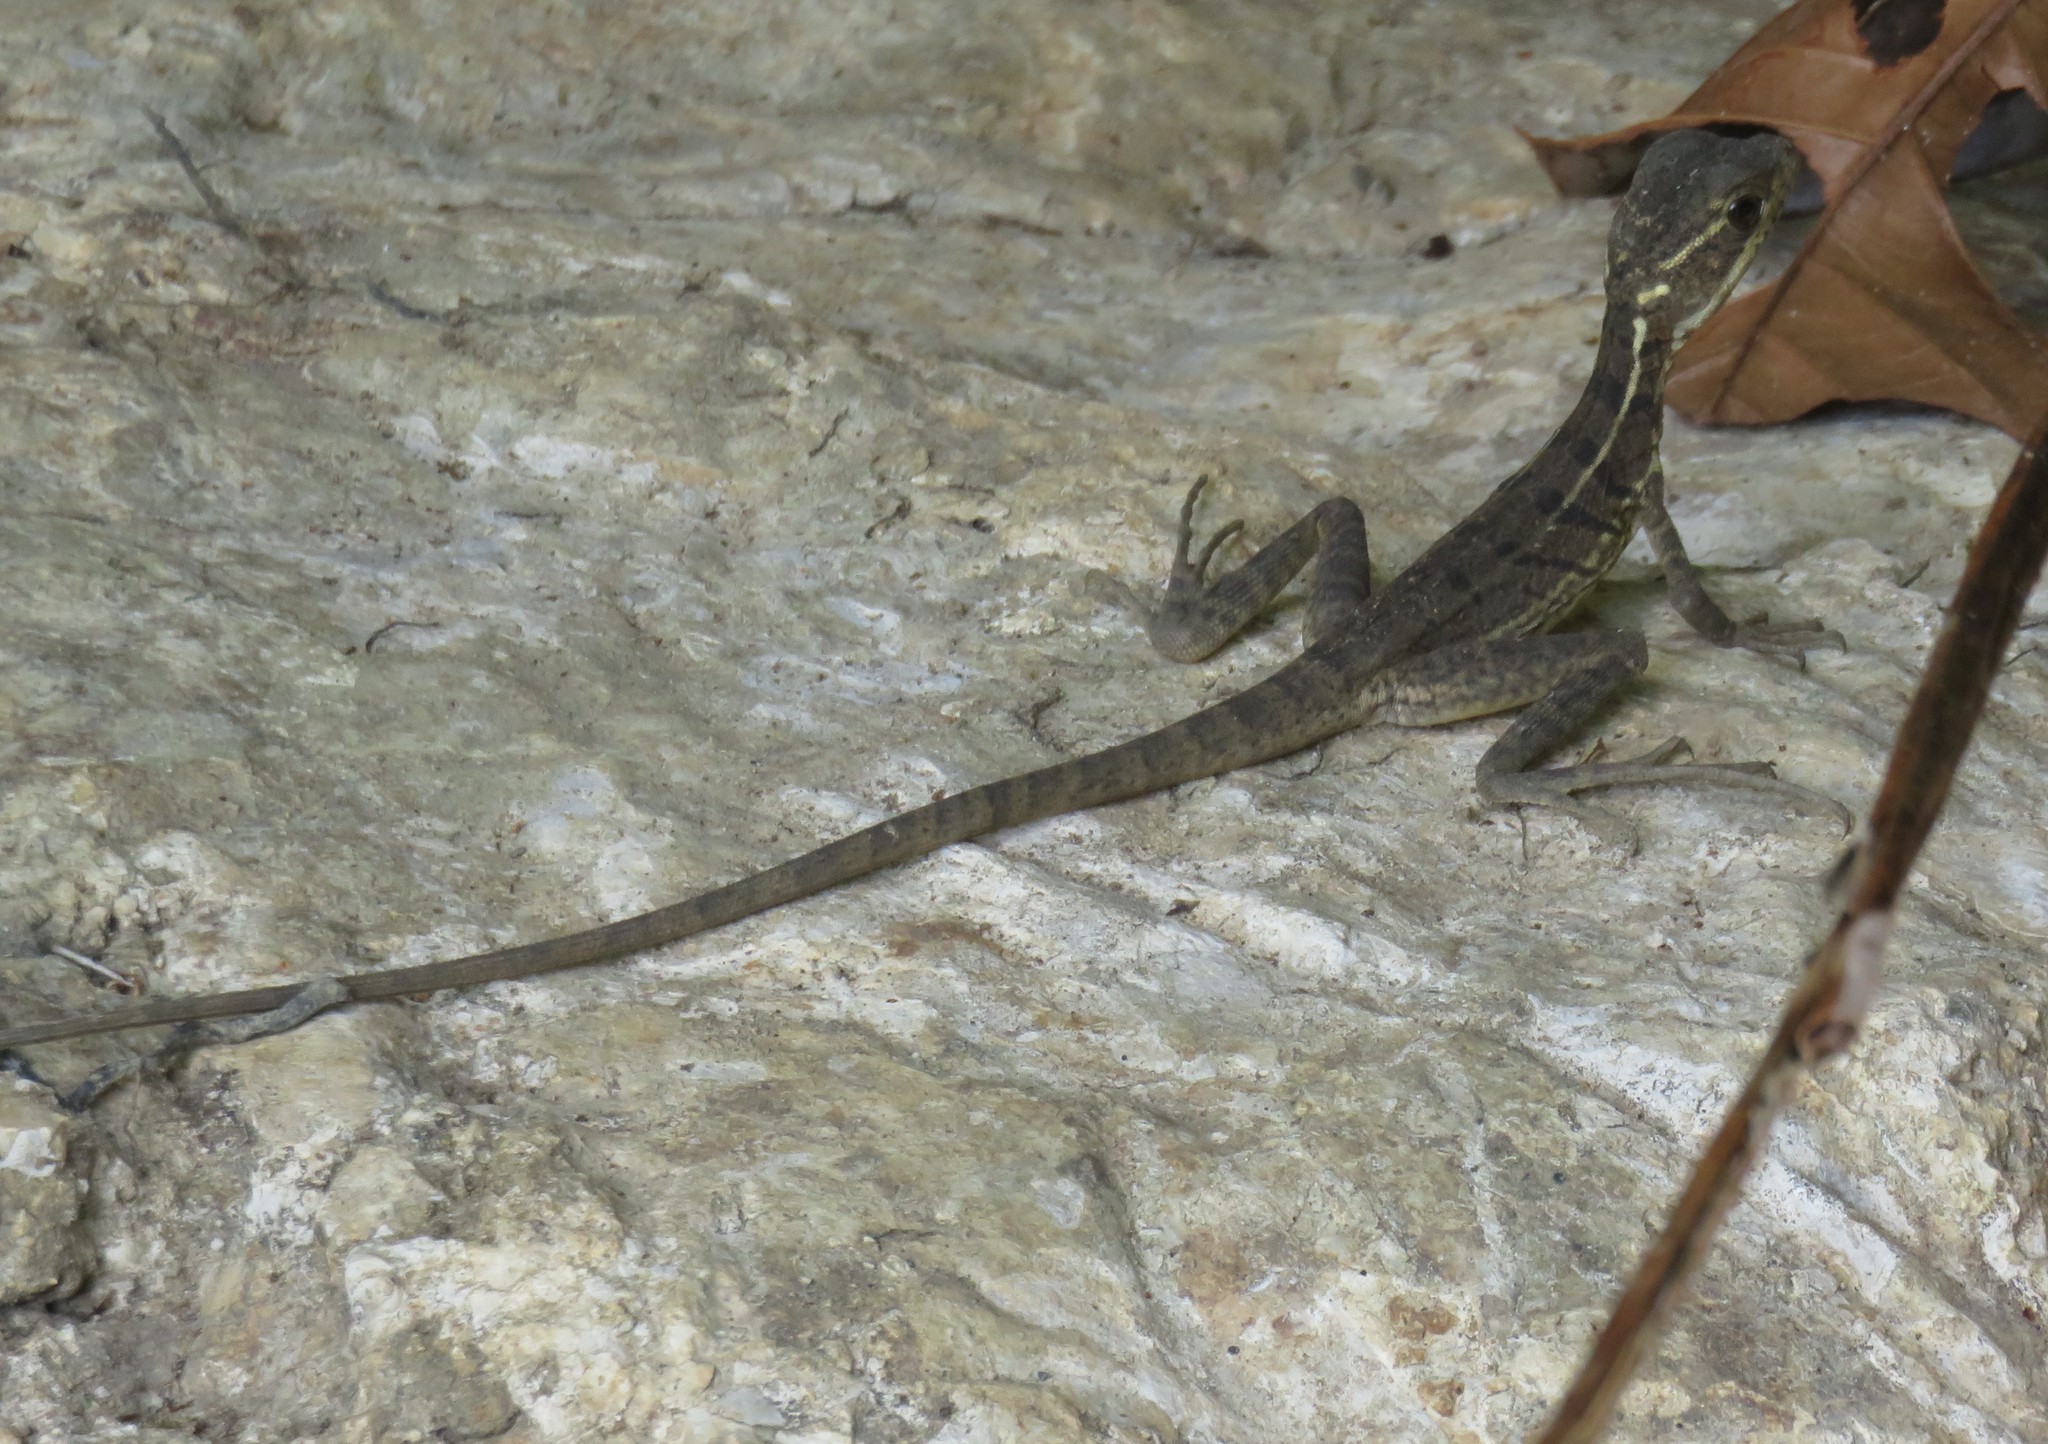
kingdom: Animalia
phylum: Chordata
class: Squamata
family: Corytophanidae
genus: Basiliscus
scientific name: Basiliscus basiliscus
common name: Common basilisk
